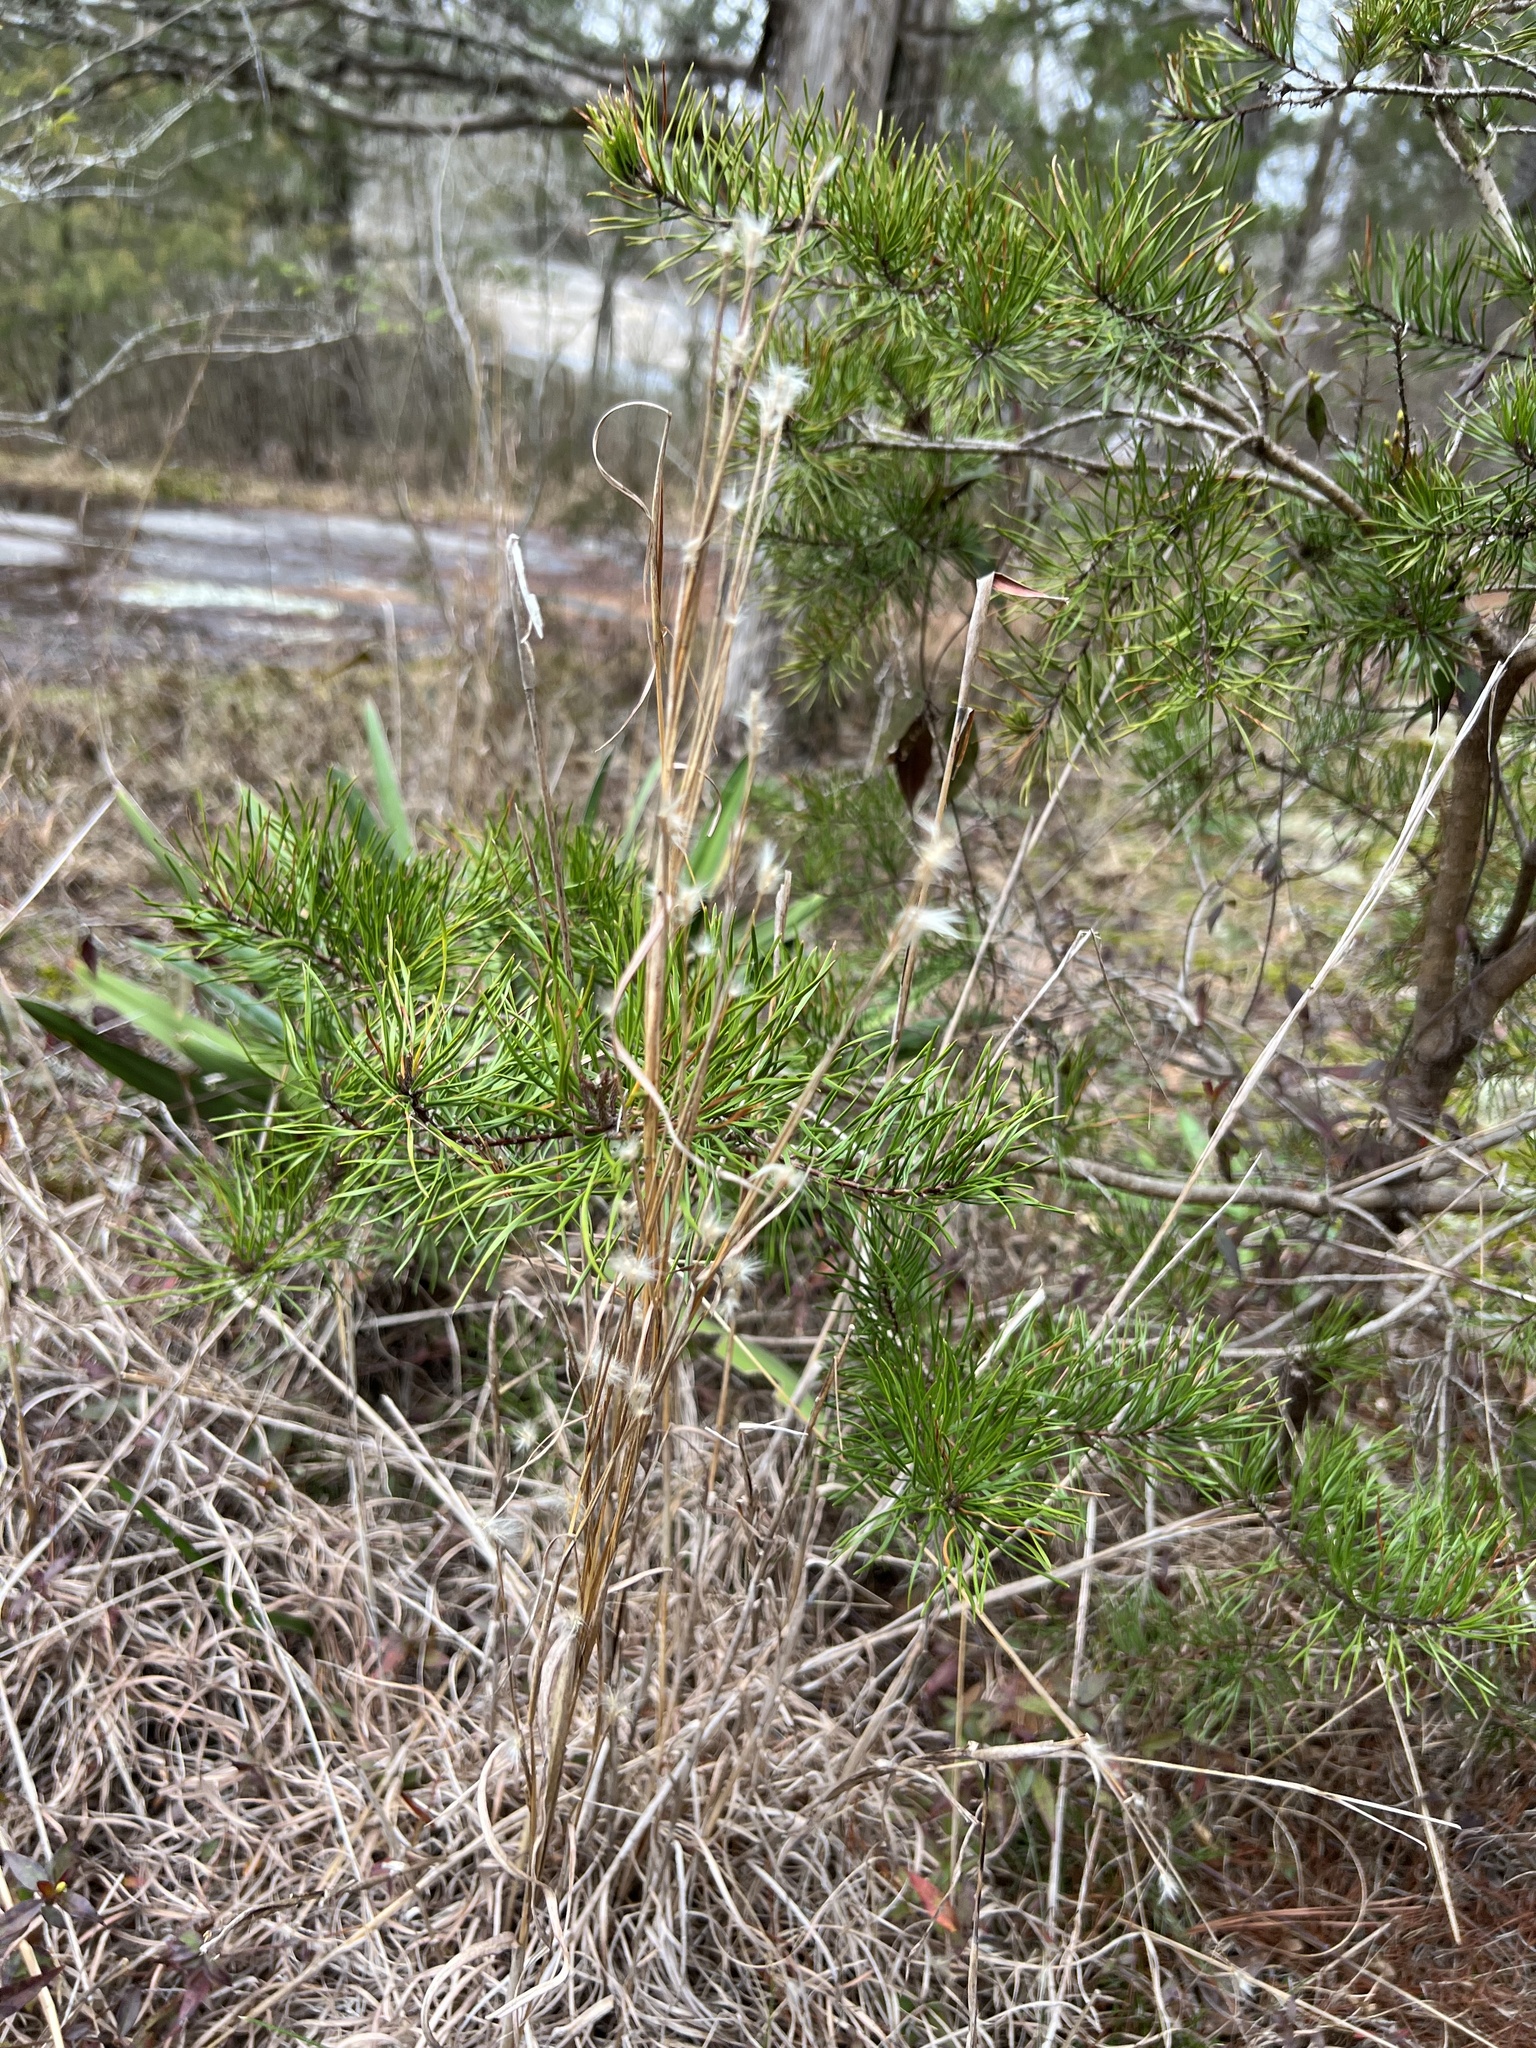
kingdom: Plantae
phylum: Tracheophyta
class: Liliopsida
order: Poales
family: Poaceae
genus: Andropogon
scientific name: Andropogon ternarius
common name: Split bluestem
